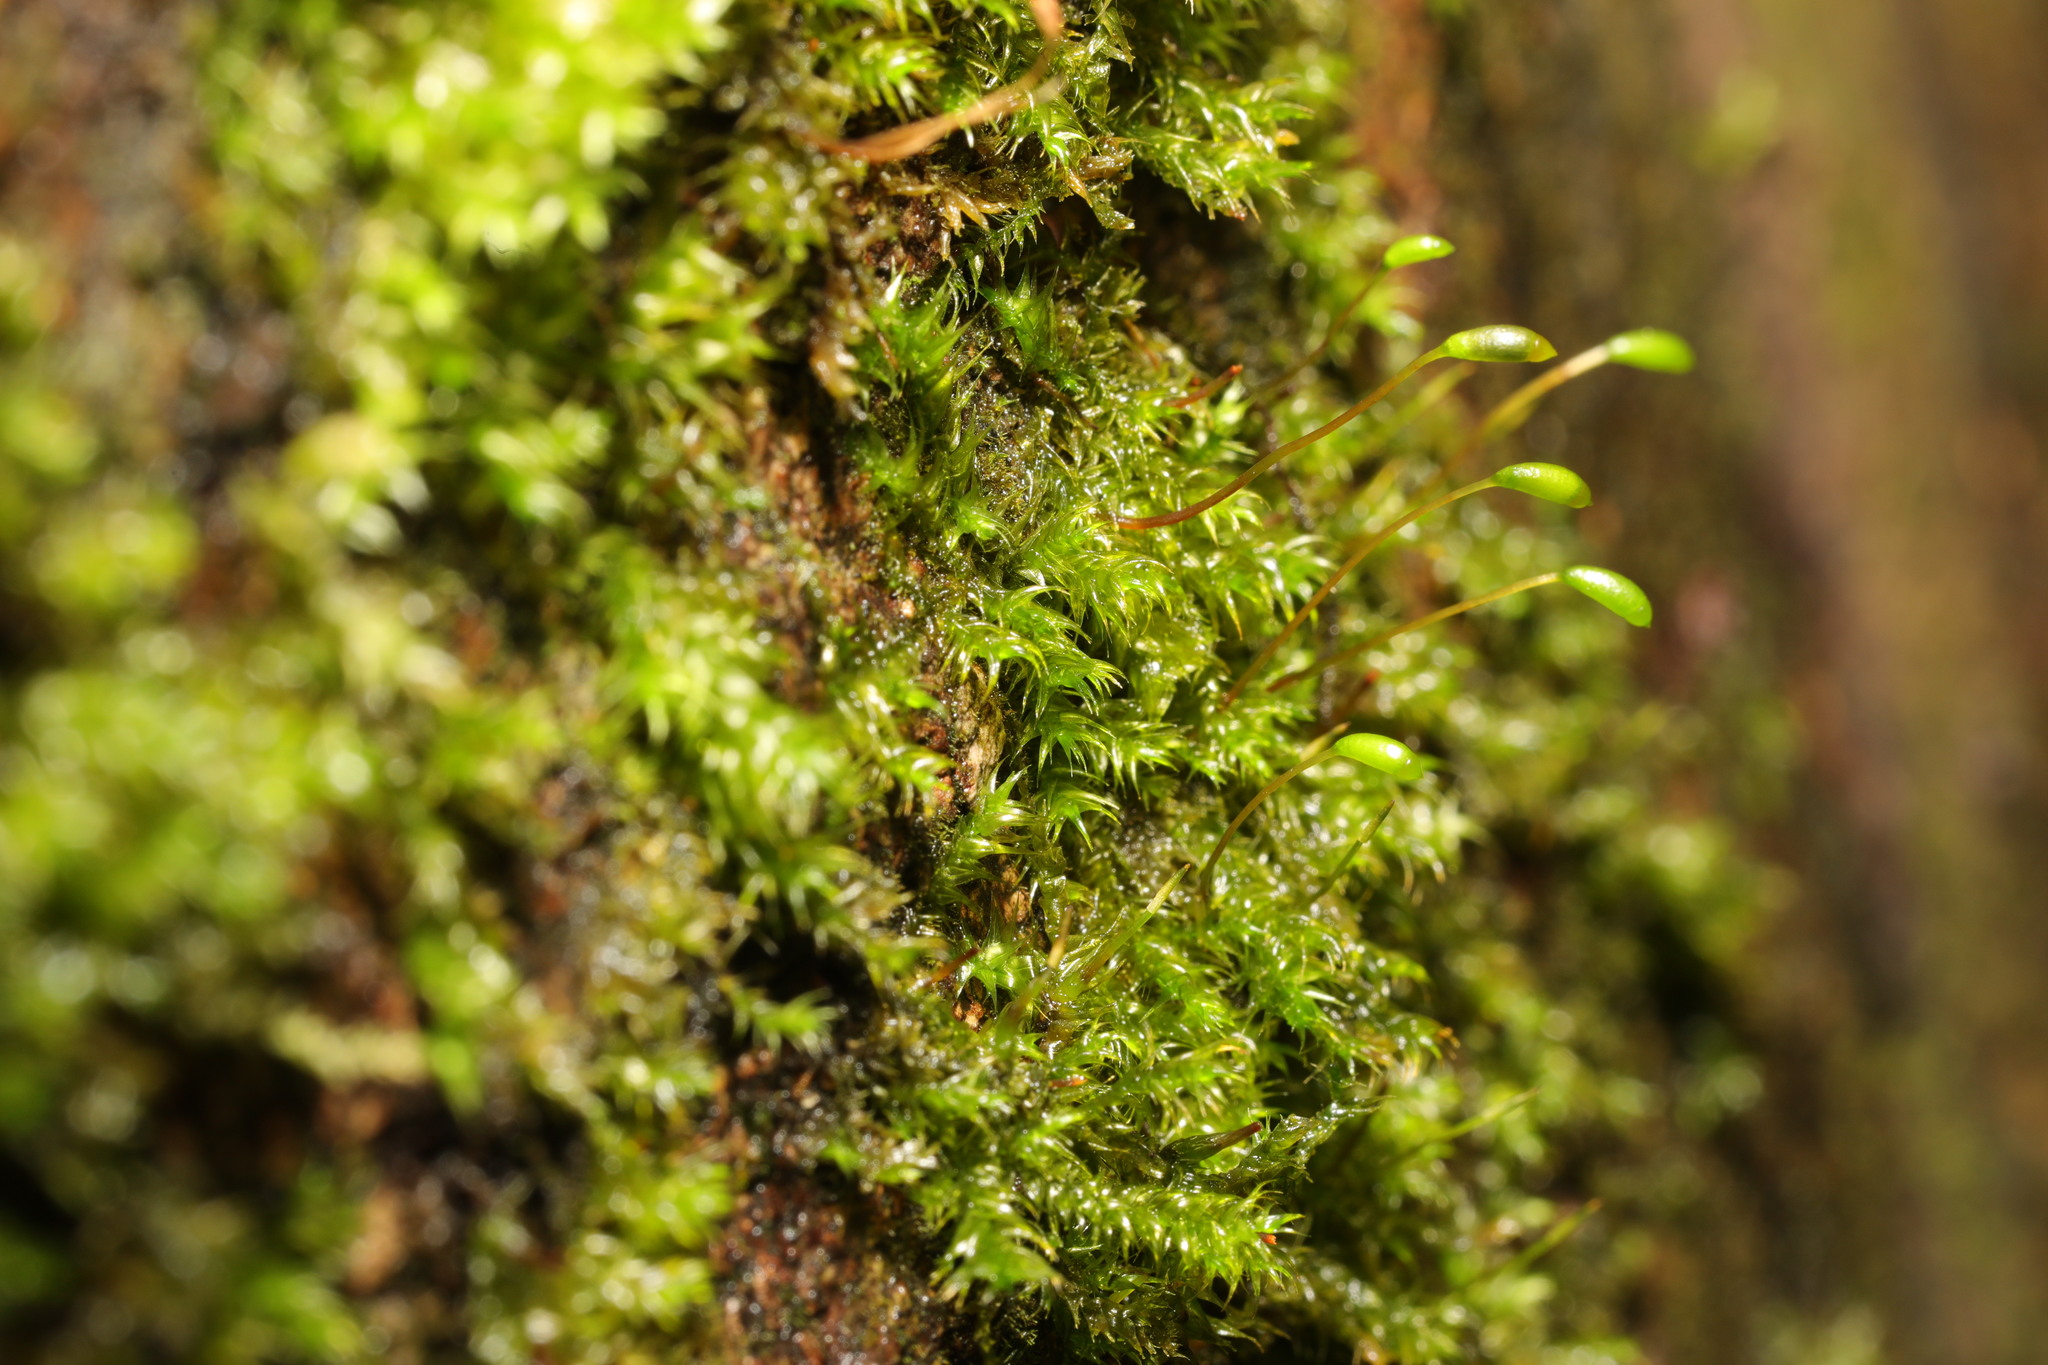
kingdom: Plantae
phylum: Bryophyta
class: Bryopsida
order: Hypnales
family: Hypnaceae
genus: Hypnum
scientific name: Hypnum cupressiforme
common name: Cypress-leaved plait-moss
